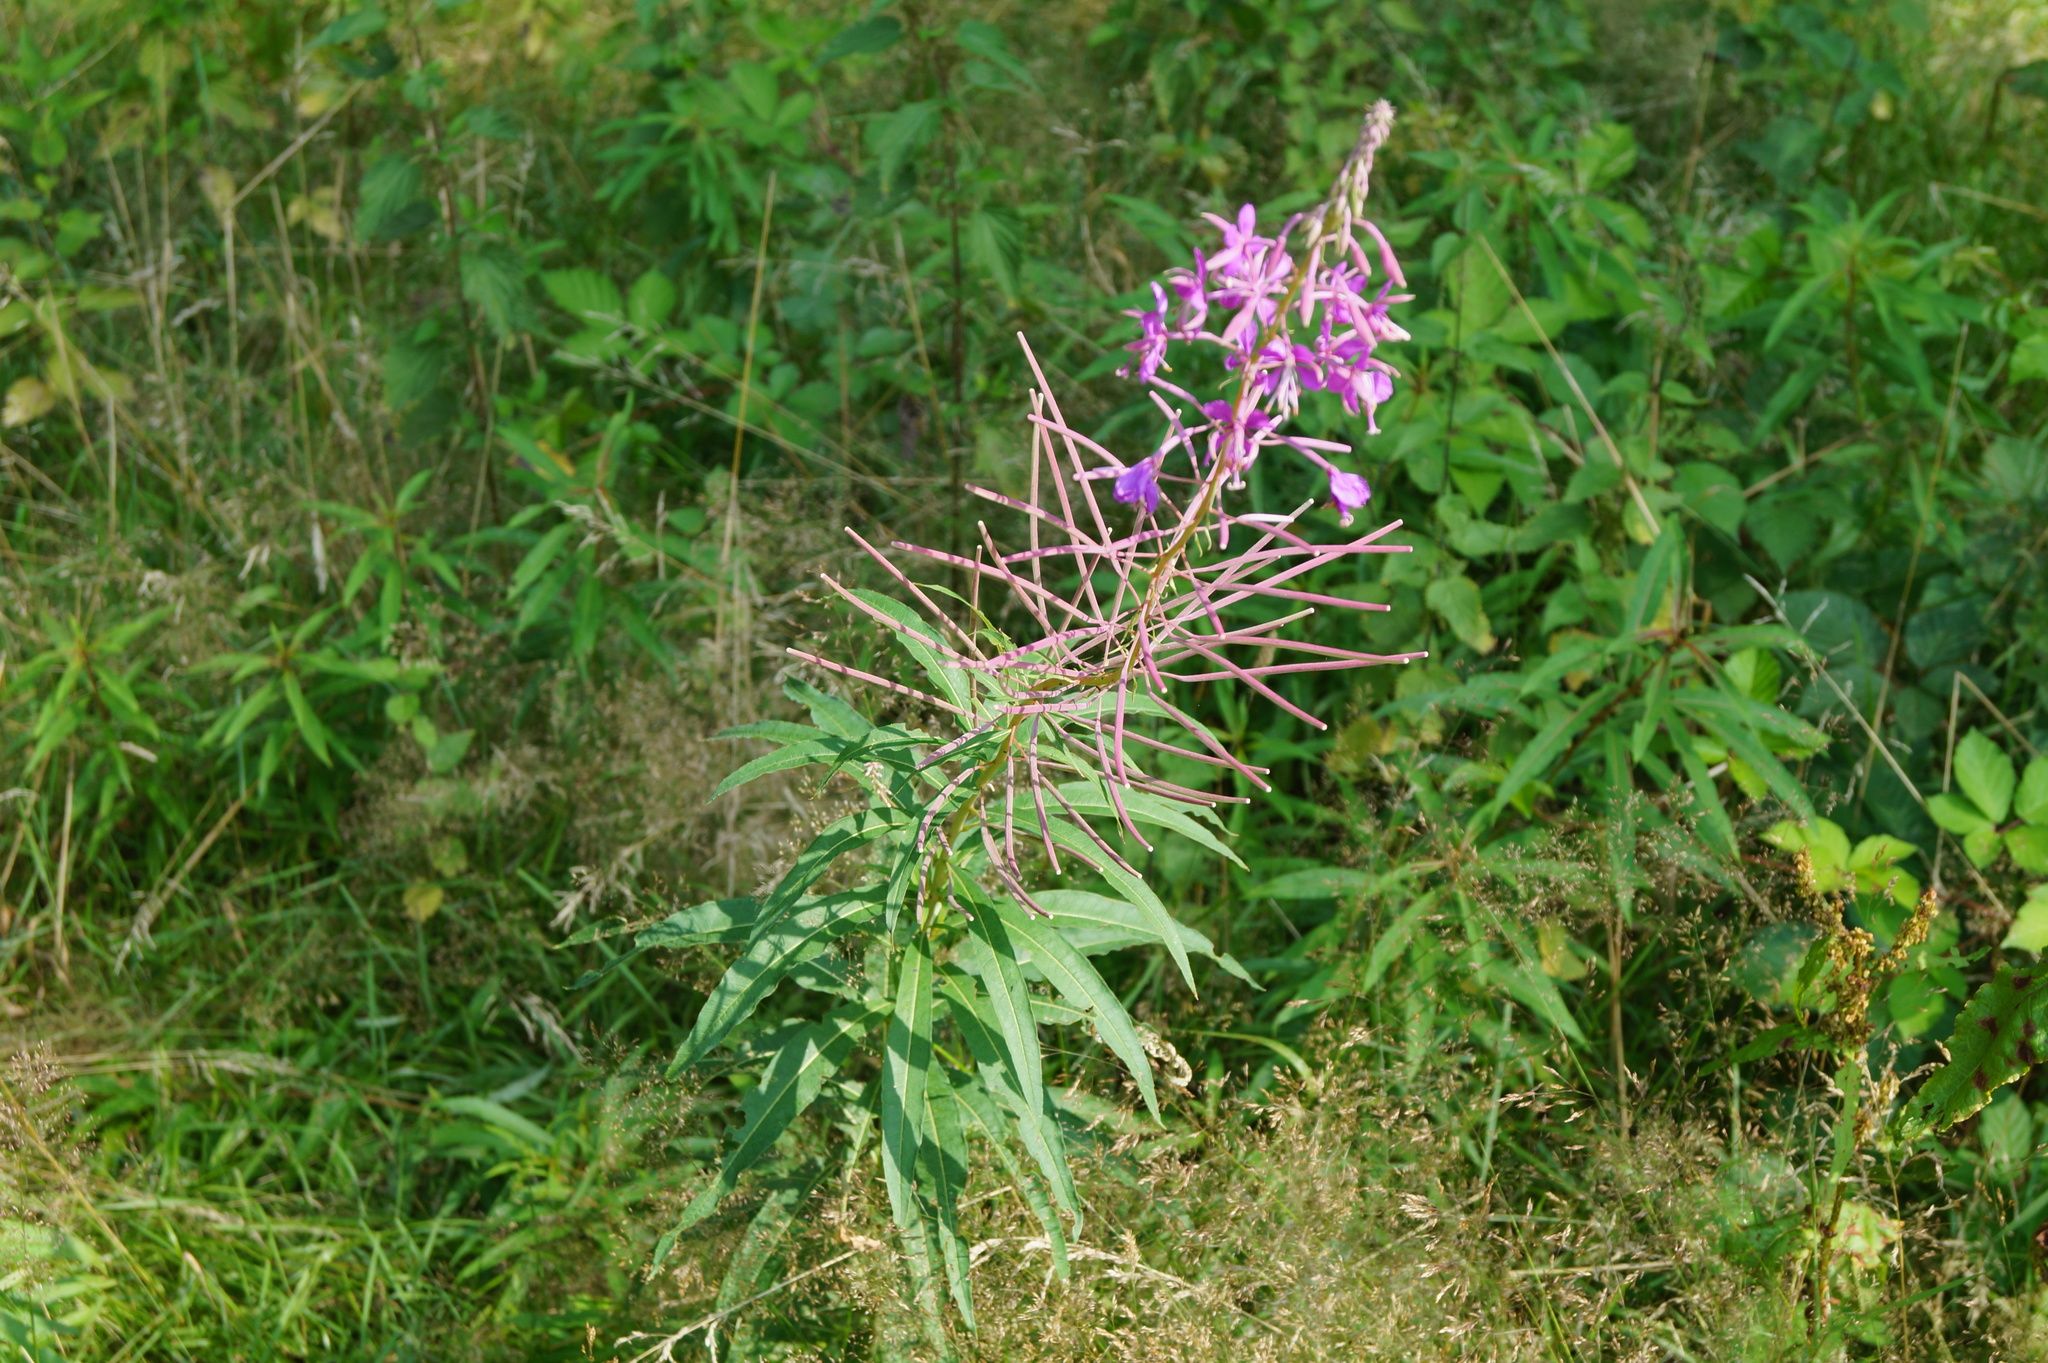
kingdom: Plantae
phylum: Tracheophyta
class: Magnoliopsida
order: Myrtales
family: Onagraceae
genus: Chamaenerion
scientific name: Chamaenerion angustifolium
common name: Fireweed
